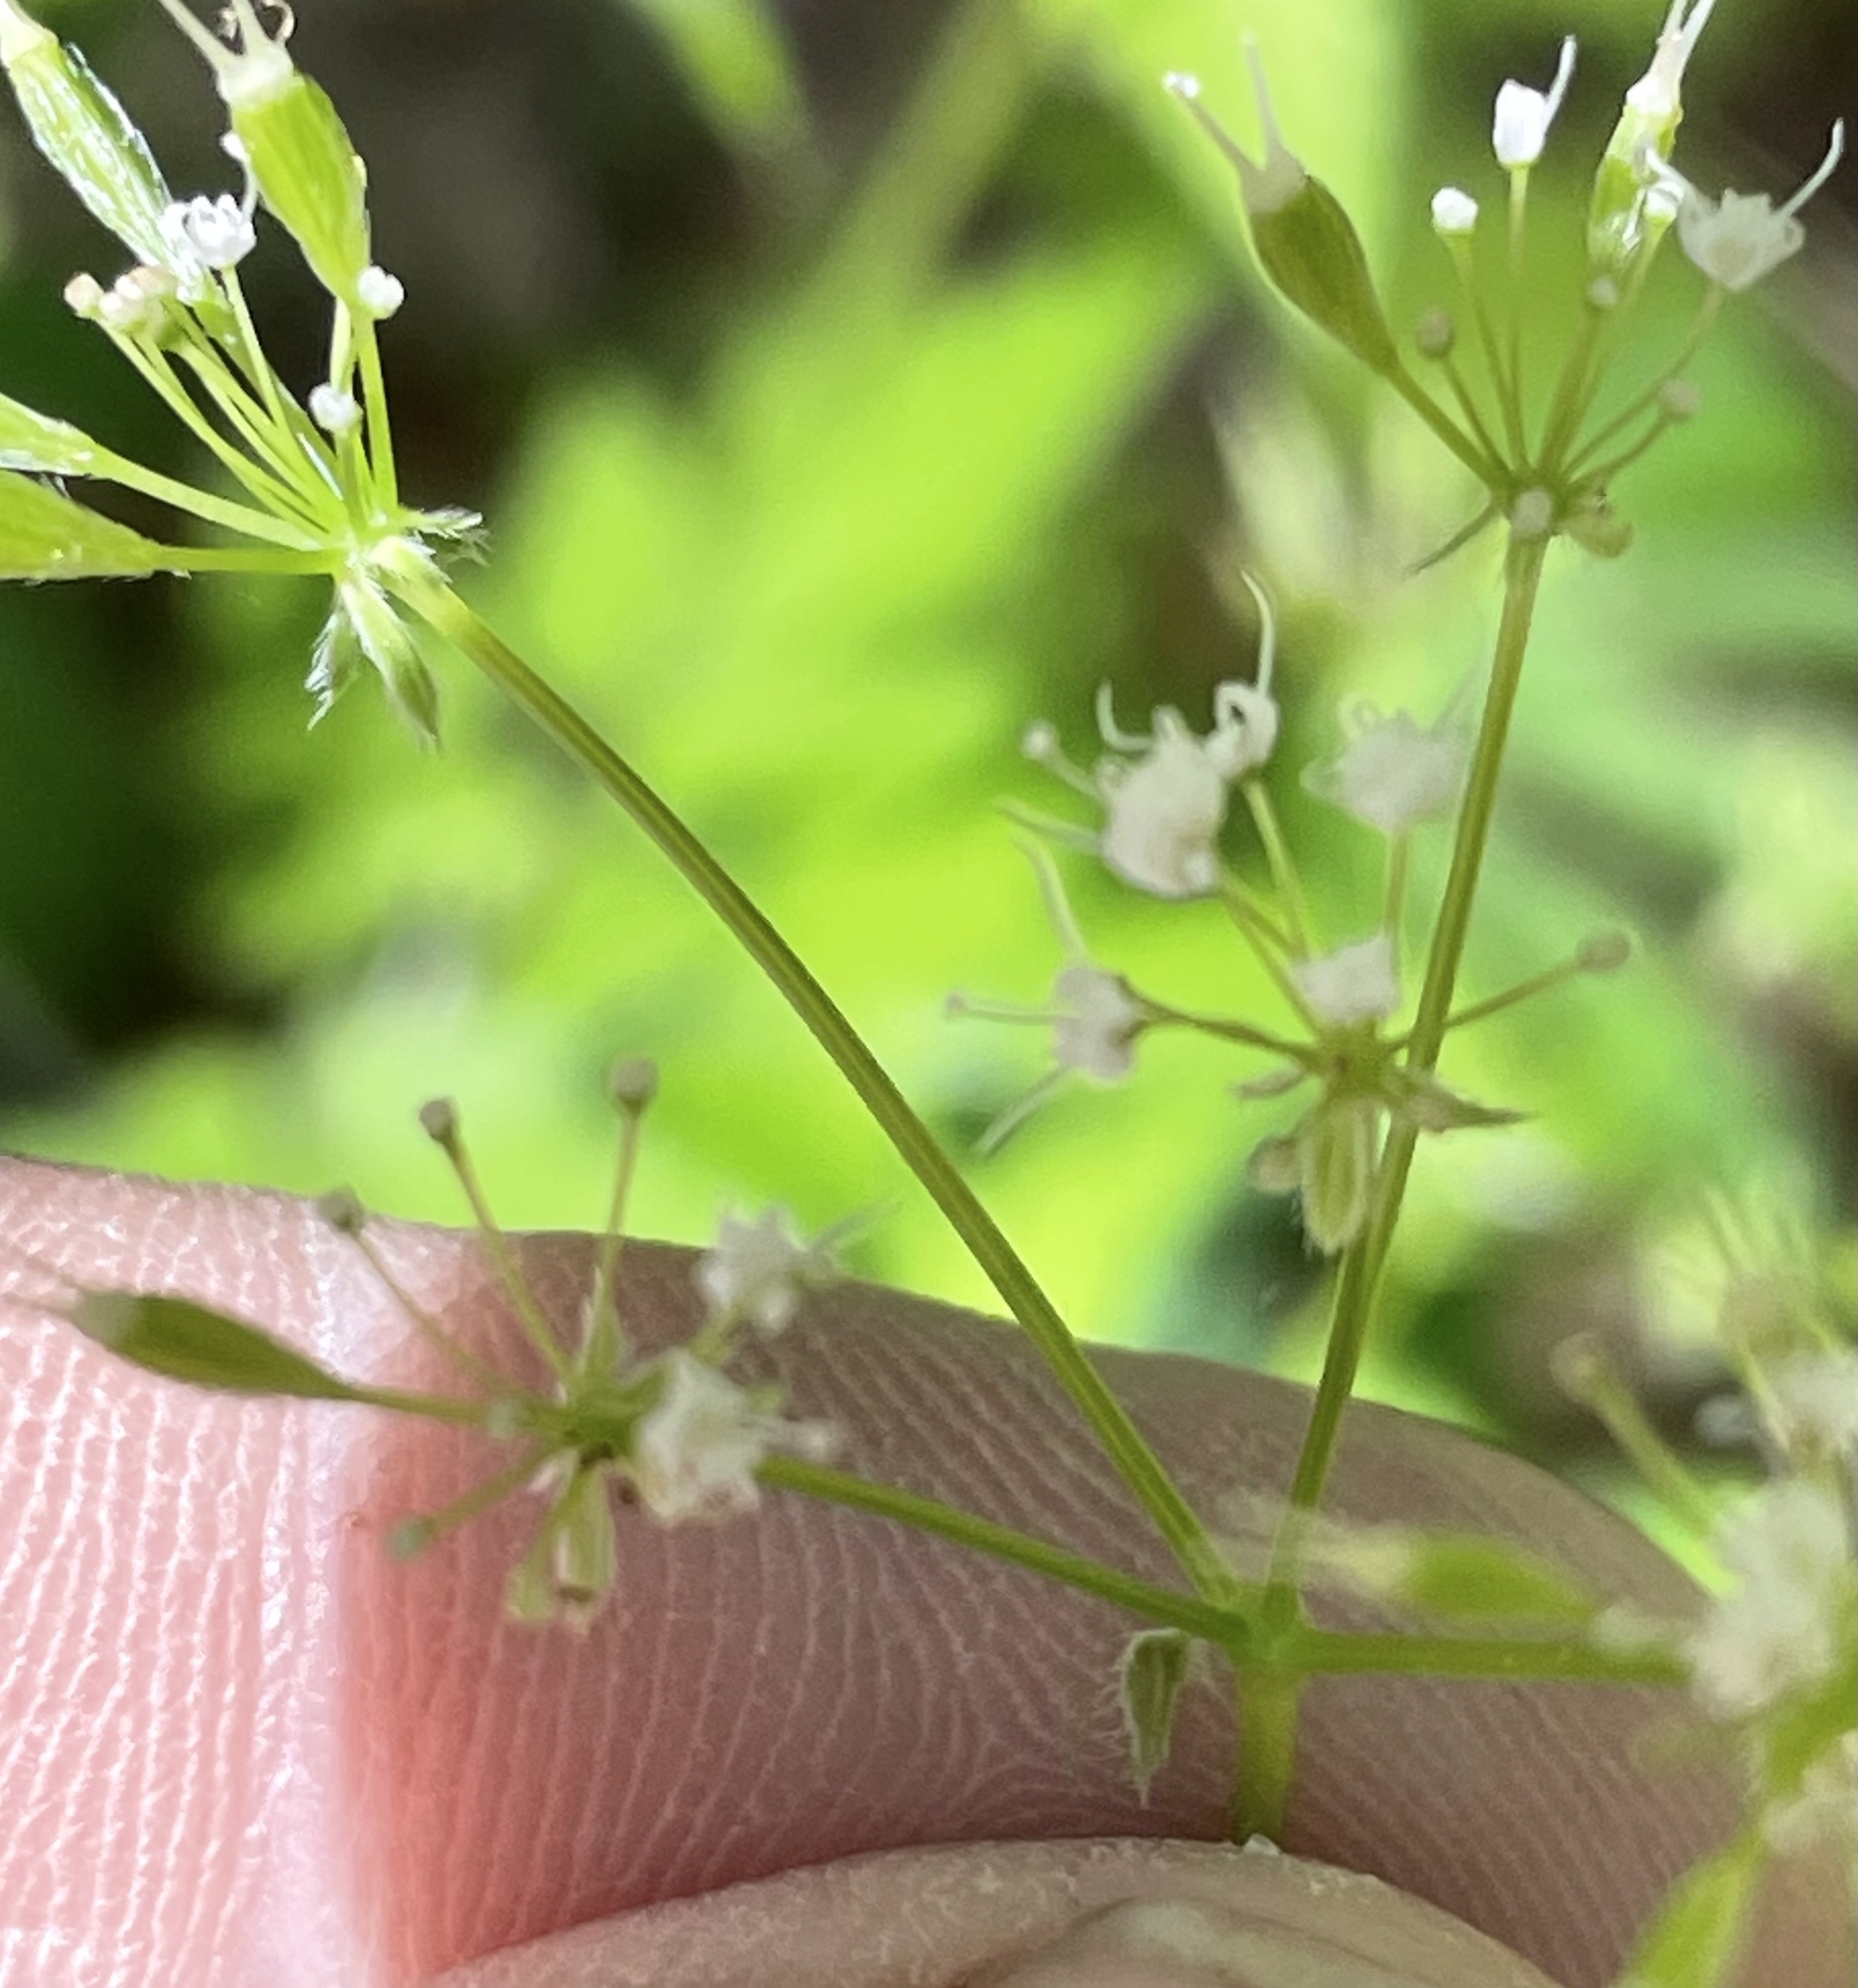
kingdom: Plantae
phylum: Tracheophyta
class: Magnoliopsida
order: Apiales
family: Apiaceae
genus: Osmorhiza
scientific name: Osmorhiza longistylis
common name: Smooth sweet cicely
